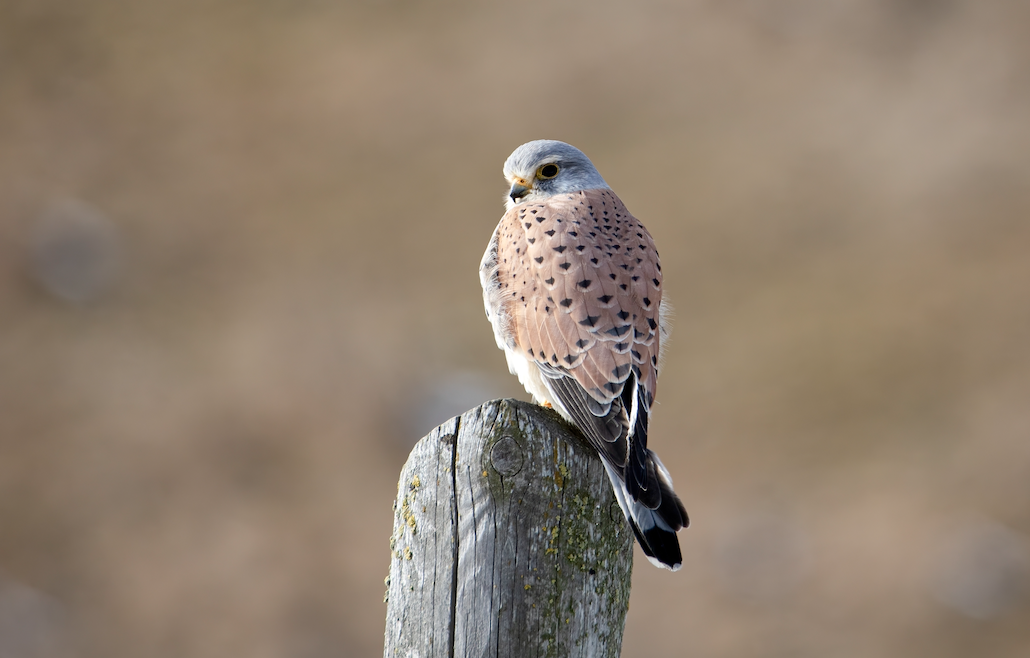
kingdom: Animalia
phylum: Chordata
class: Aves
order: Falconiformes
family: Falconidae
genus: Falco
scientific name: Falco tinnunculus
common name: Common kestrel
